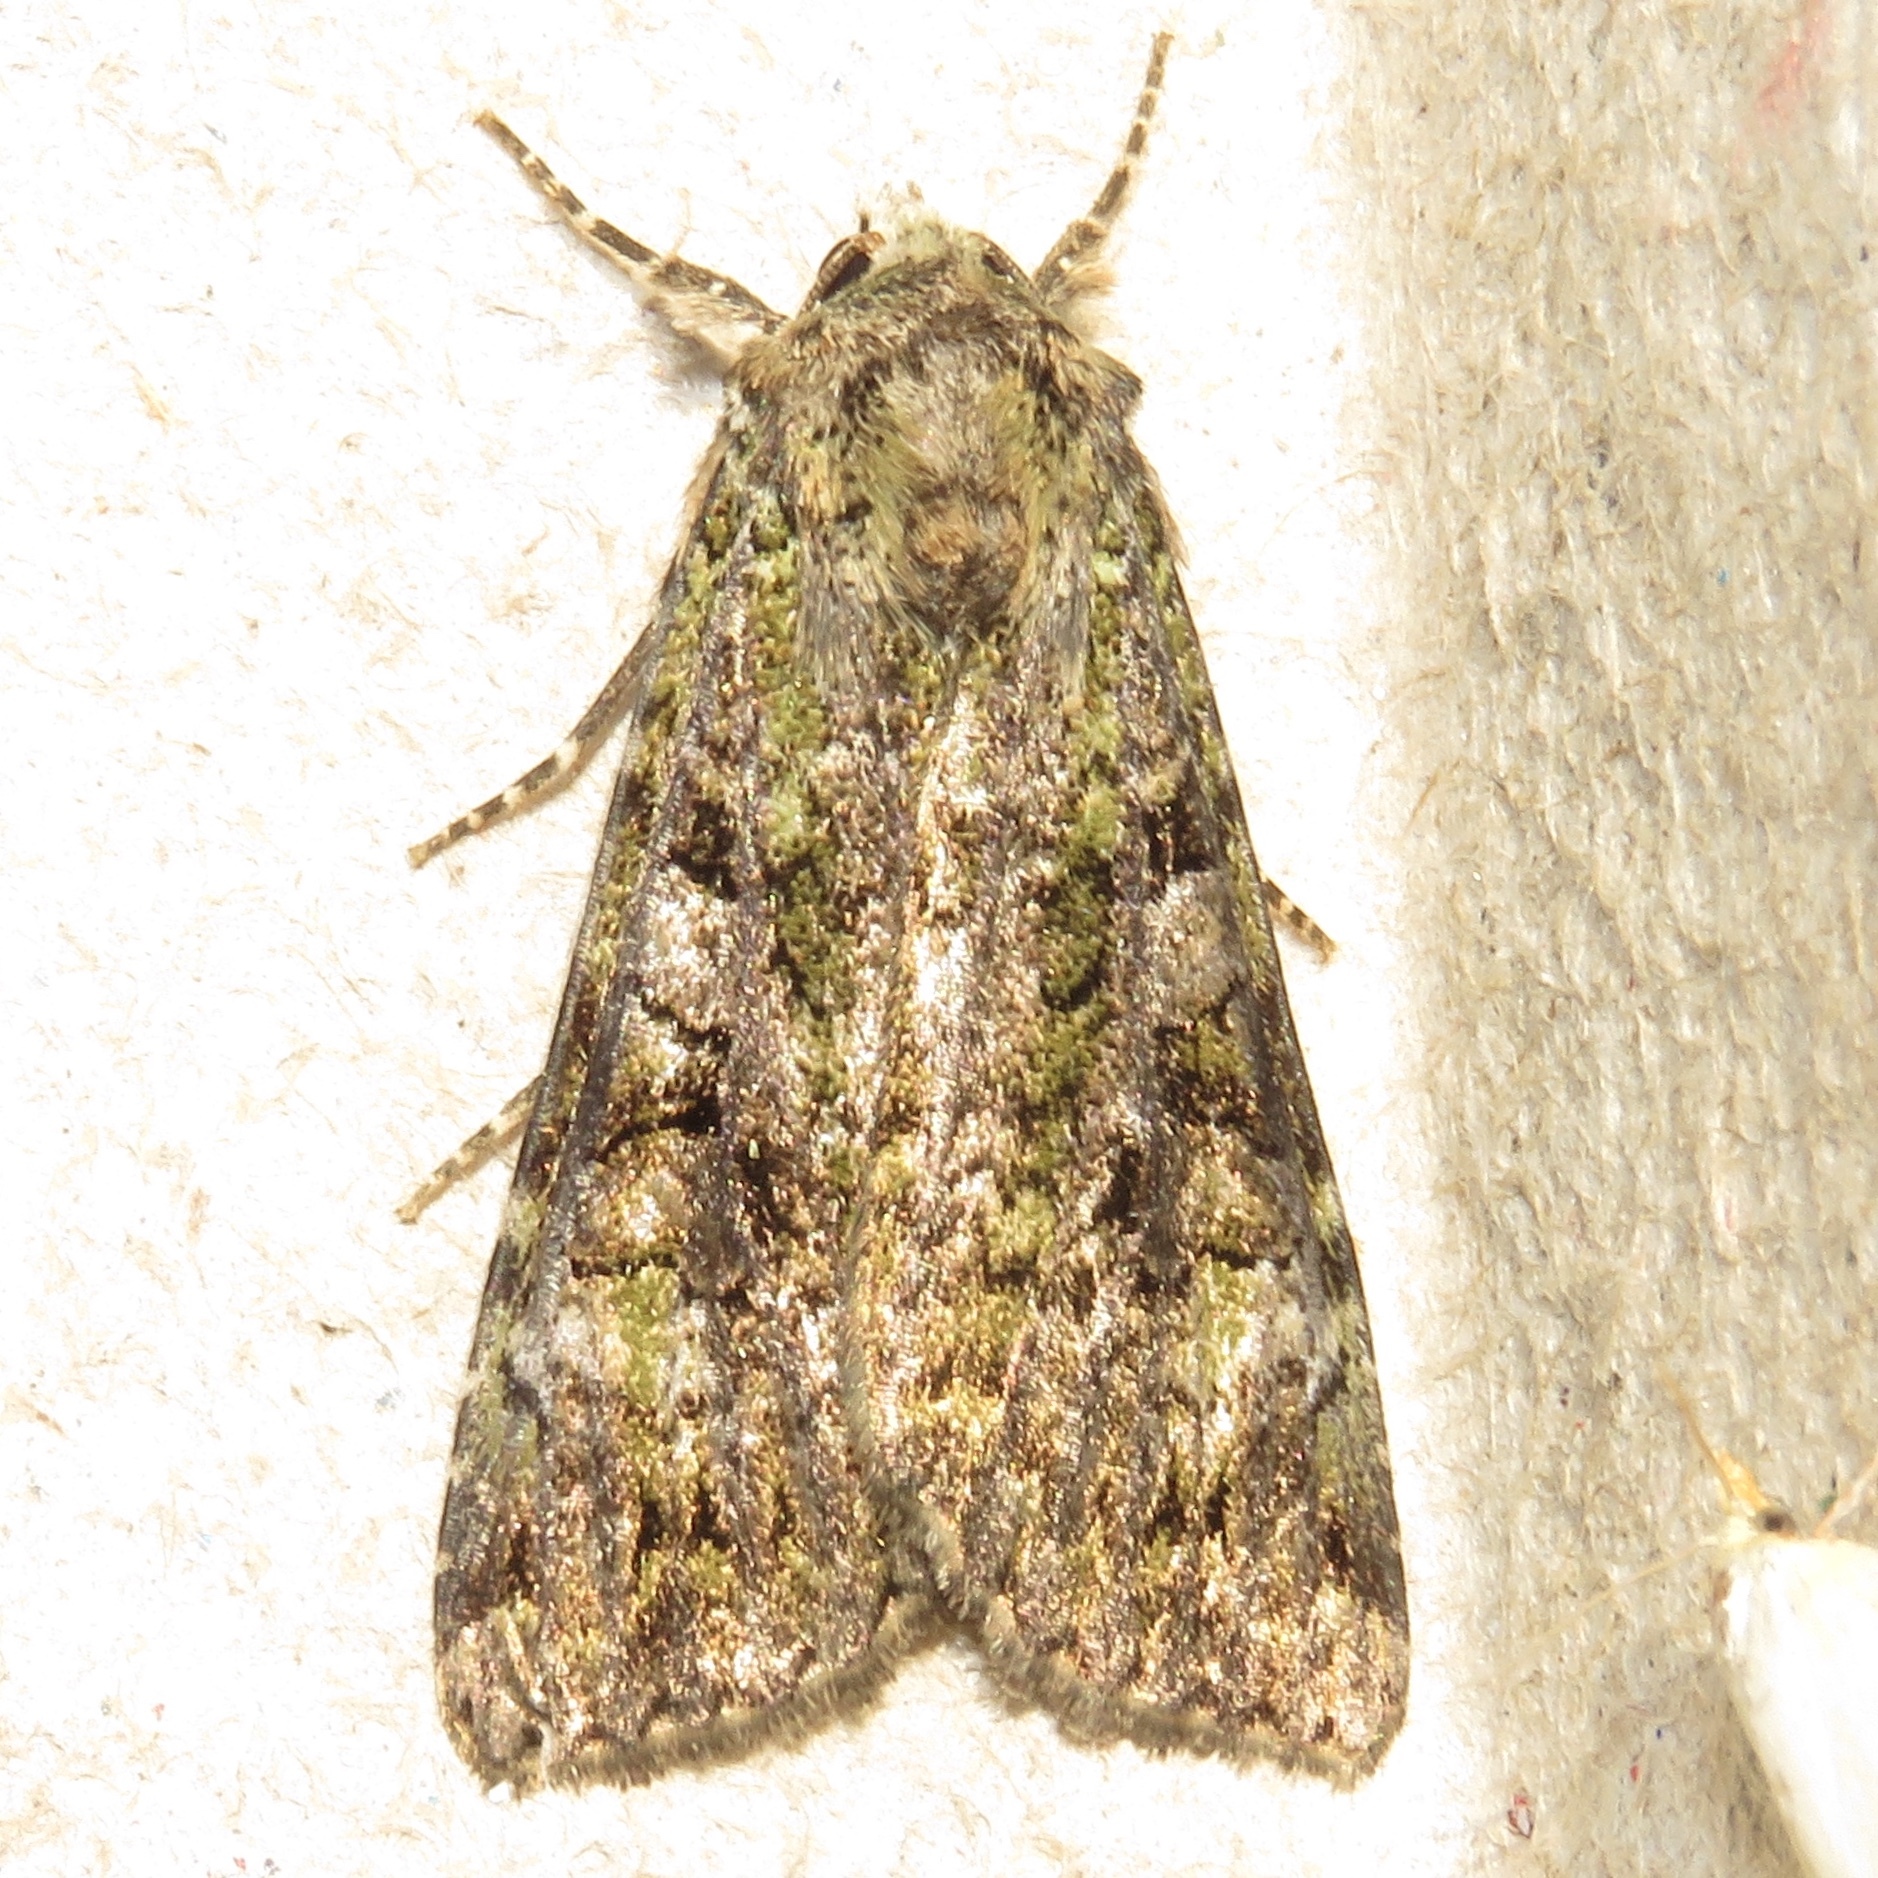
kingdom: Animalia
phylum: Arthropoda
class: Insecta
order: Lepidoptera
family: Noctuidae
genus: Anaplectoides
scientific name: Anaplectoides prasina
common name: Green arches
